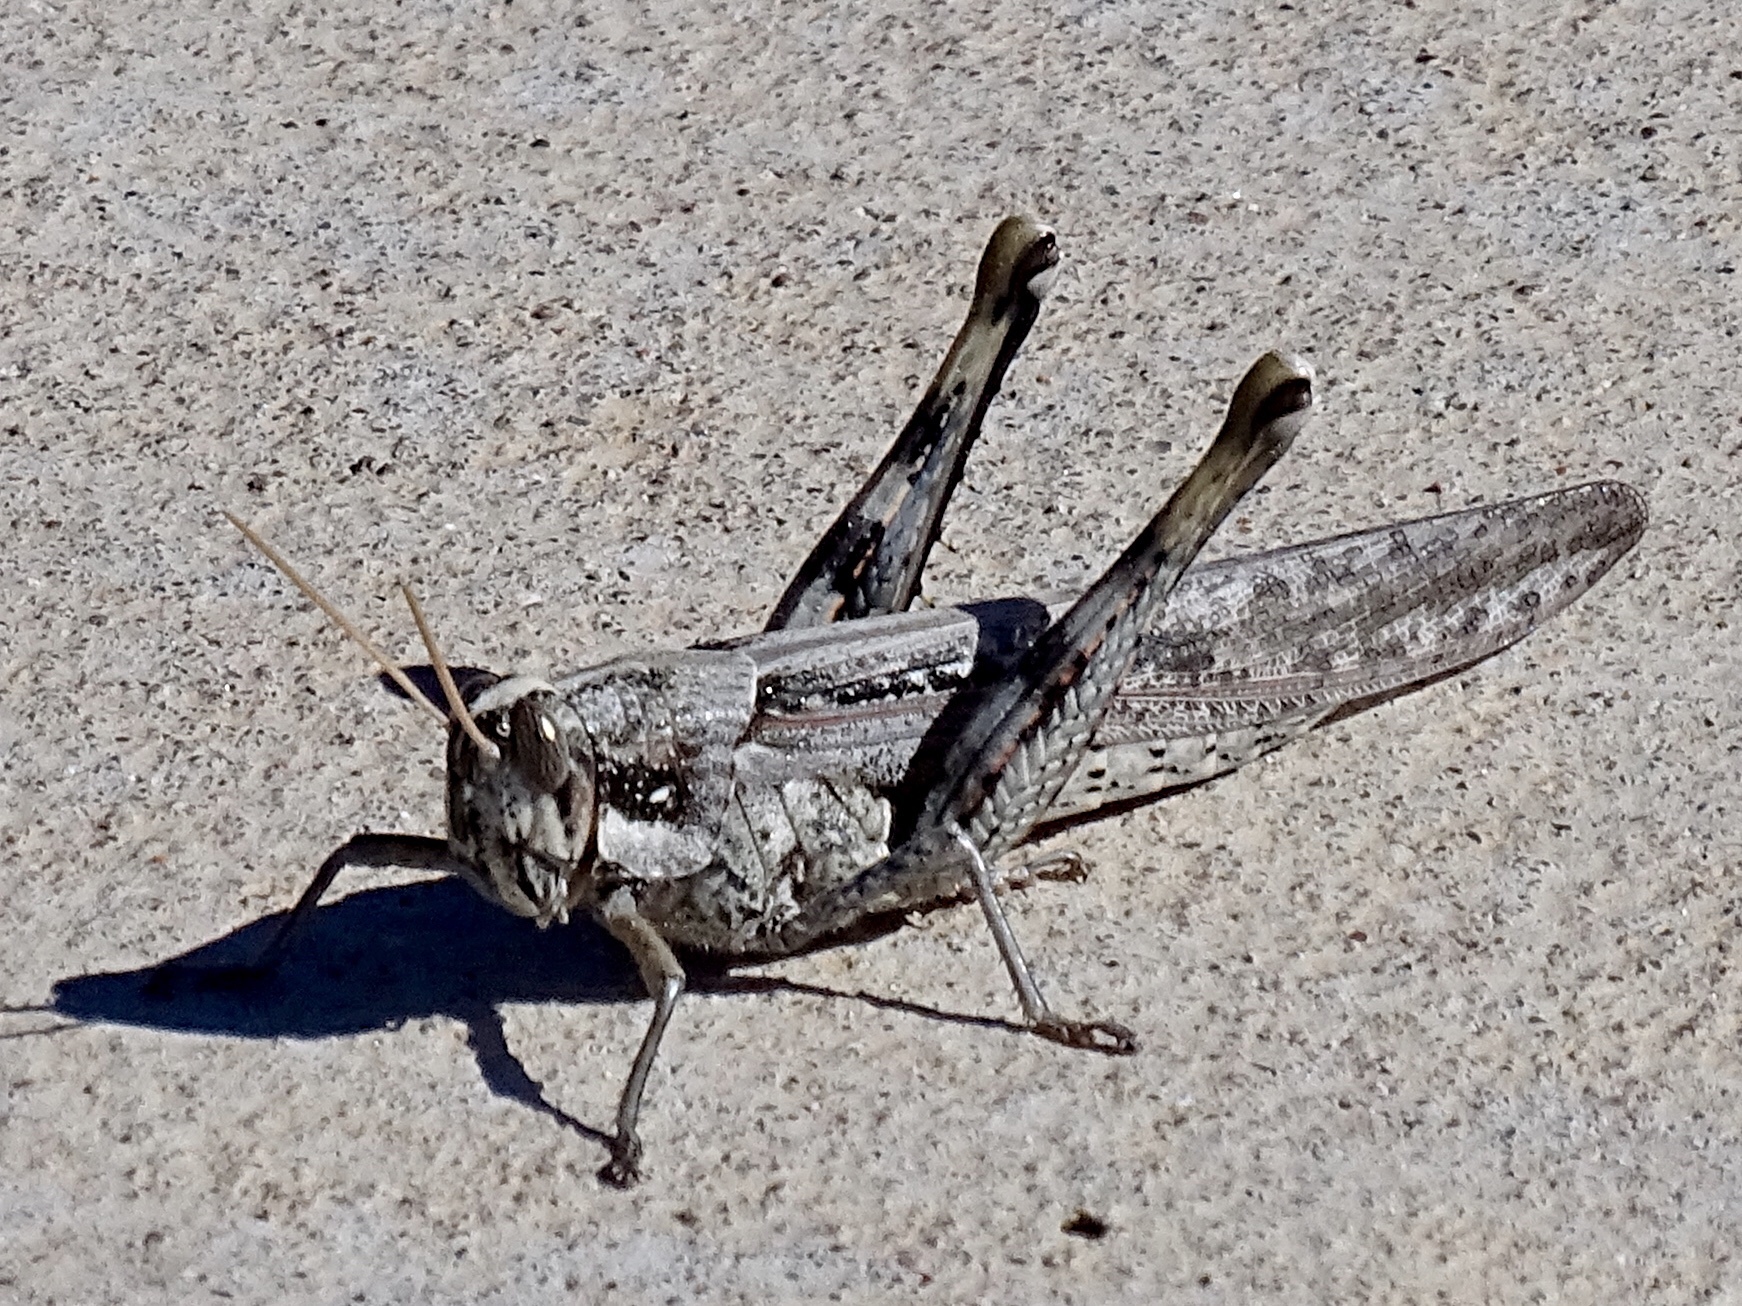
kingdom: Animalia
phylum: Arthropoda
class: Insecta
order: Orthoptera
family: Acrididae
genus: Schistocerca
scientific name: Schistocerca nitens
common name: Vagrant grasshopper
